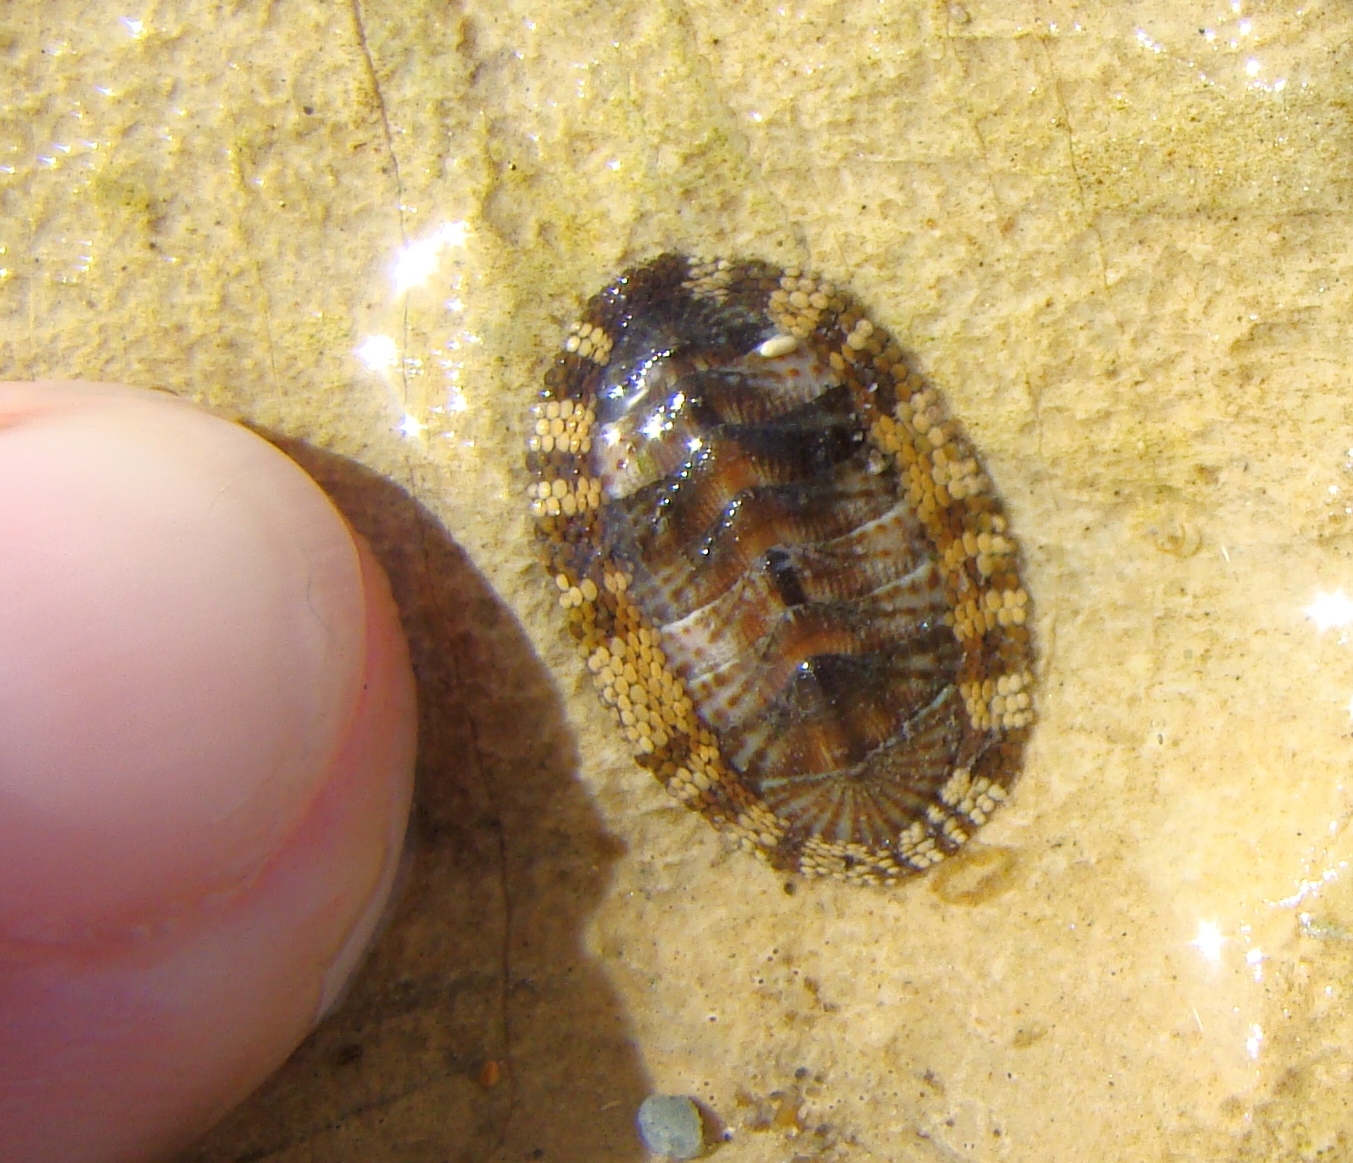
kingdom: Animalia
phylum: Mollusca
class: Polyplacophora
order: Chitonida
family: Chitonidae
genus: Sypharochiton
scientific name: Sypharochiton pelliserpentis
